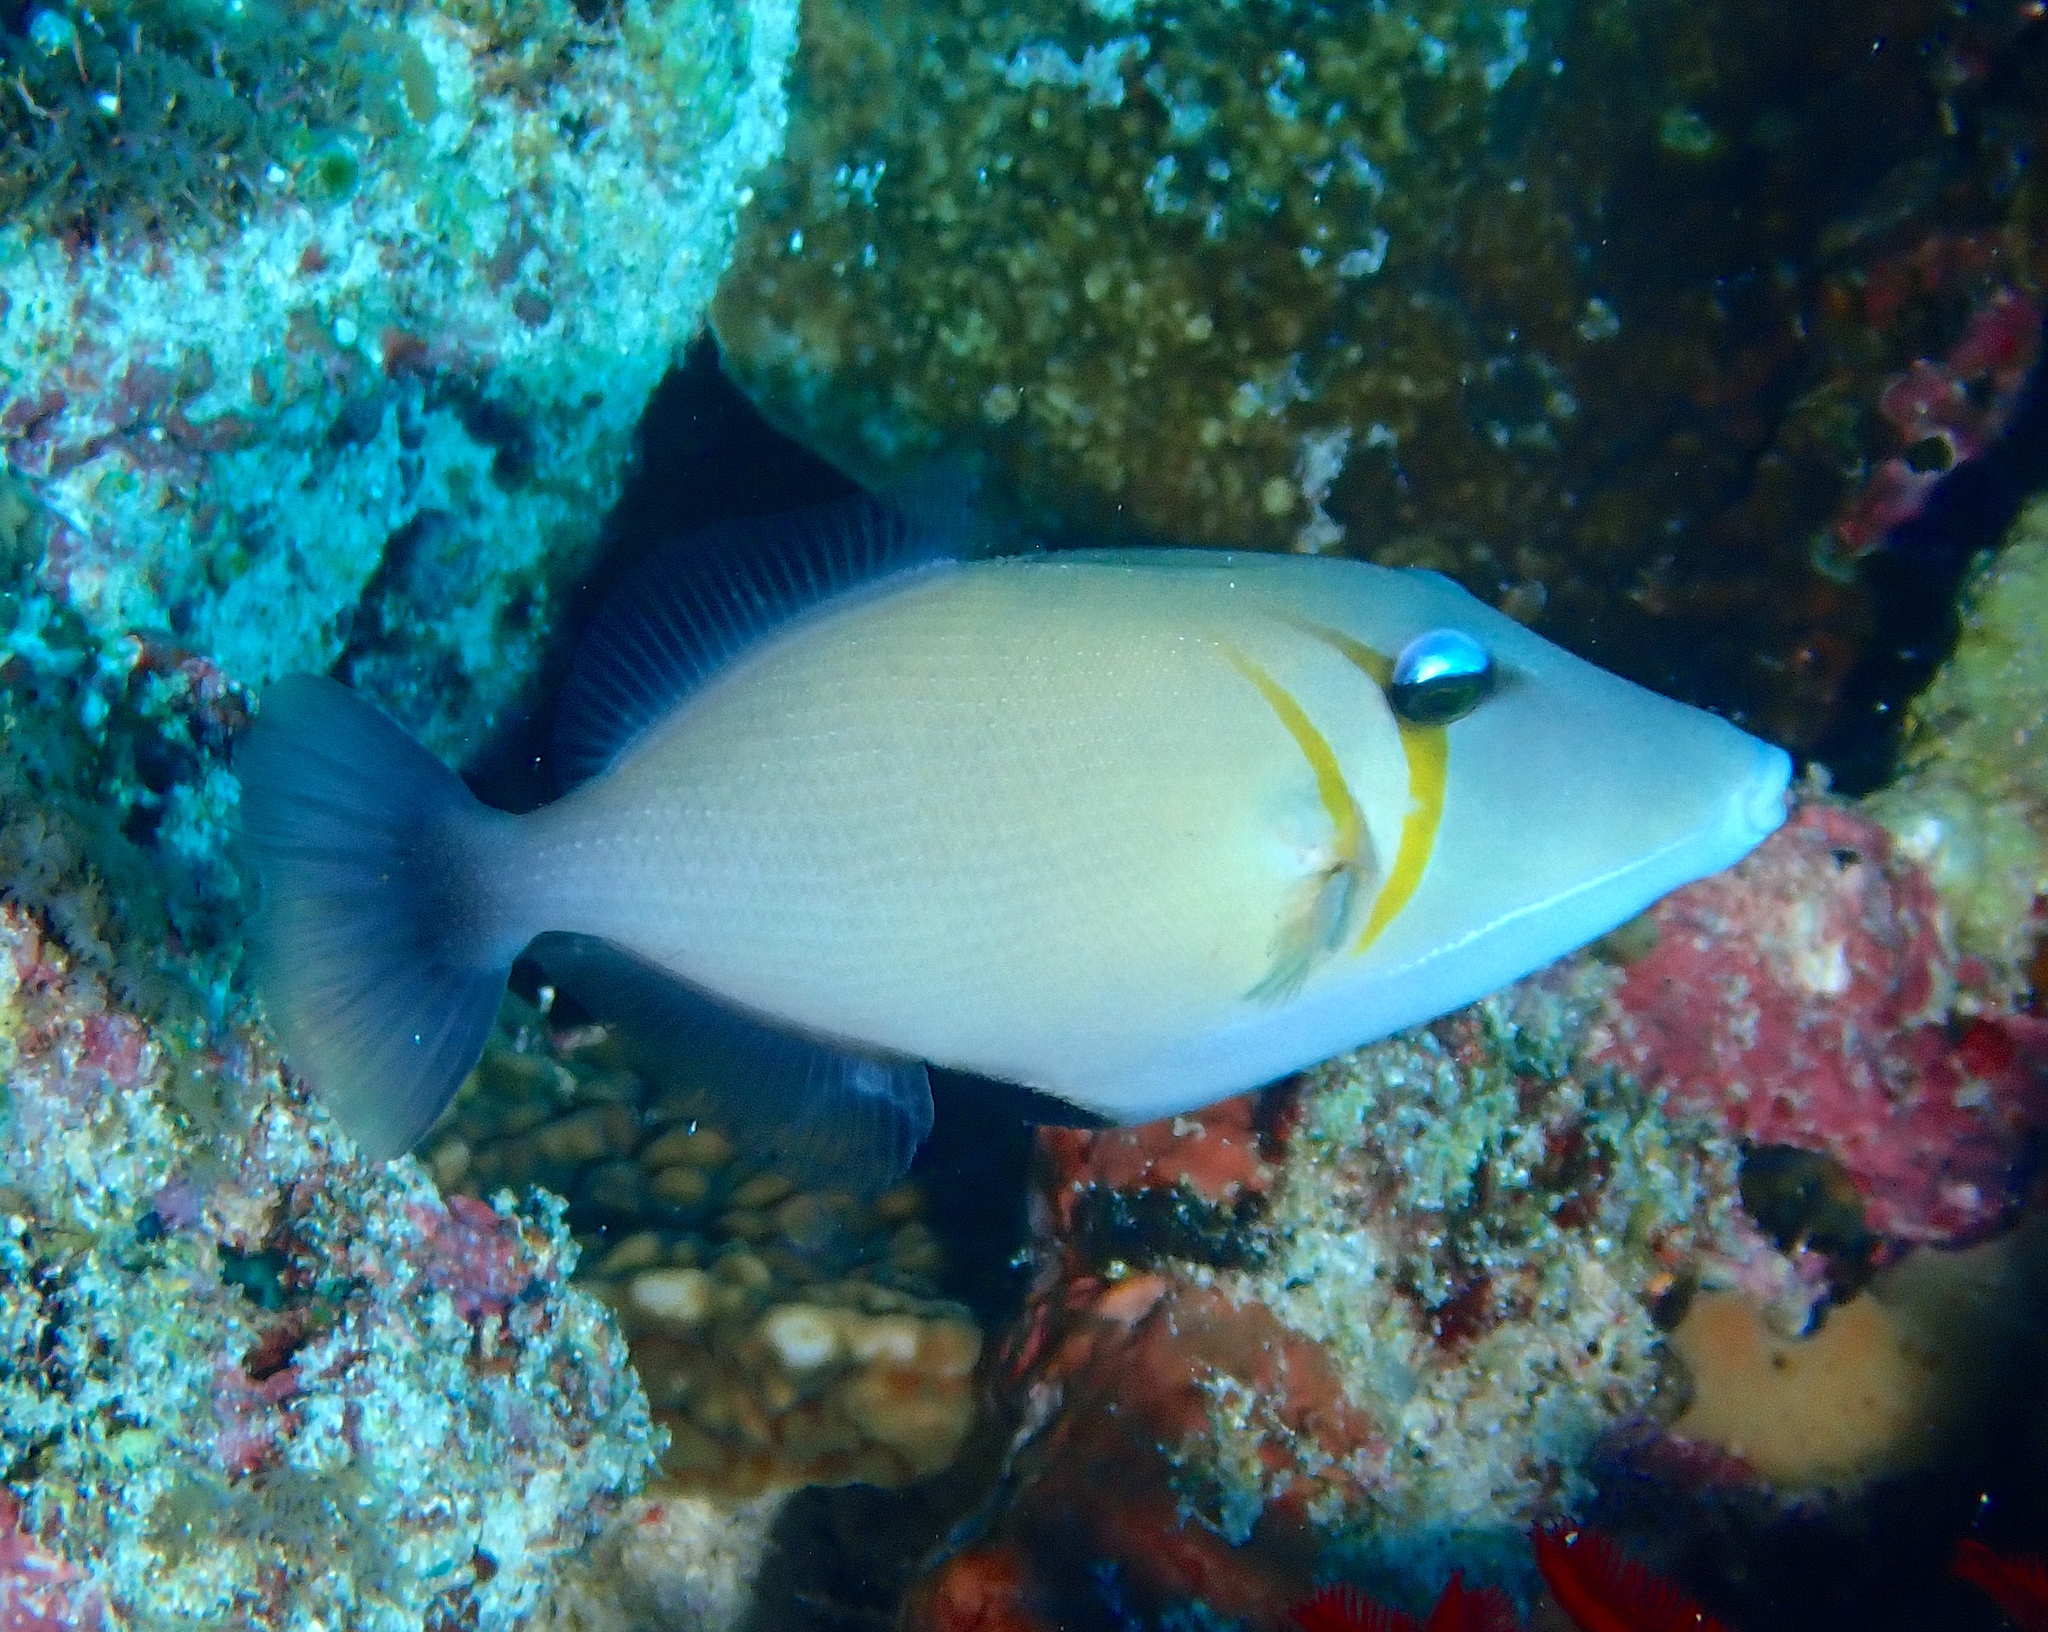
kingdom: Animalia
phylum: Chordata
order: Tetraodontiformes
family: Balistidae
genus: Sufflamen
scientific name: Sufflamen bursa
